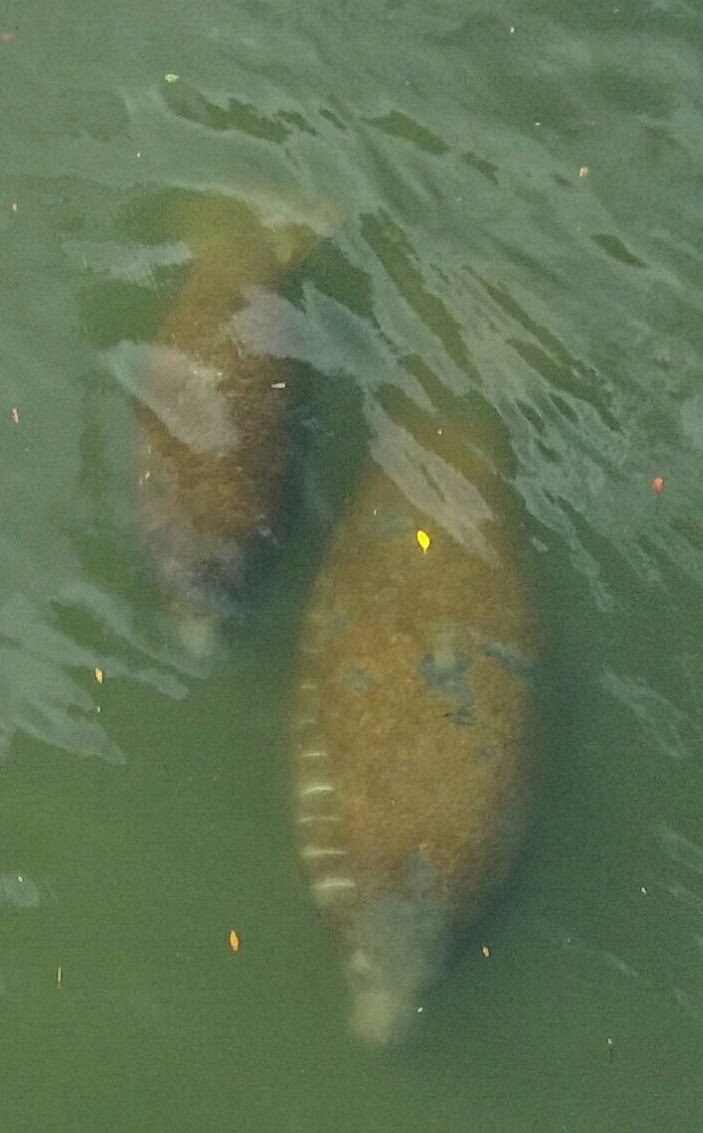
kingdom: Animalia
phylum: Chordata
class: Mammalia
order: Sirenia
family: Trichechidae
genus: Trichechus
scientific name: Trichechus manatus
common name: West indian manatee
